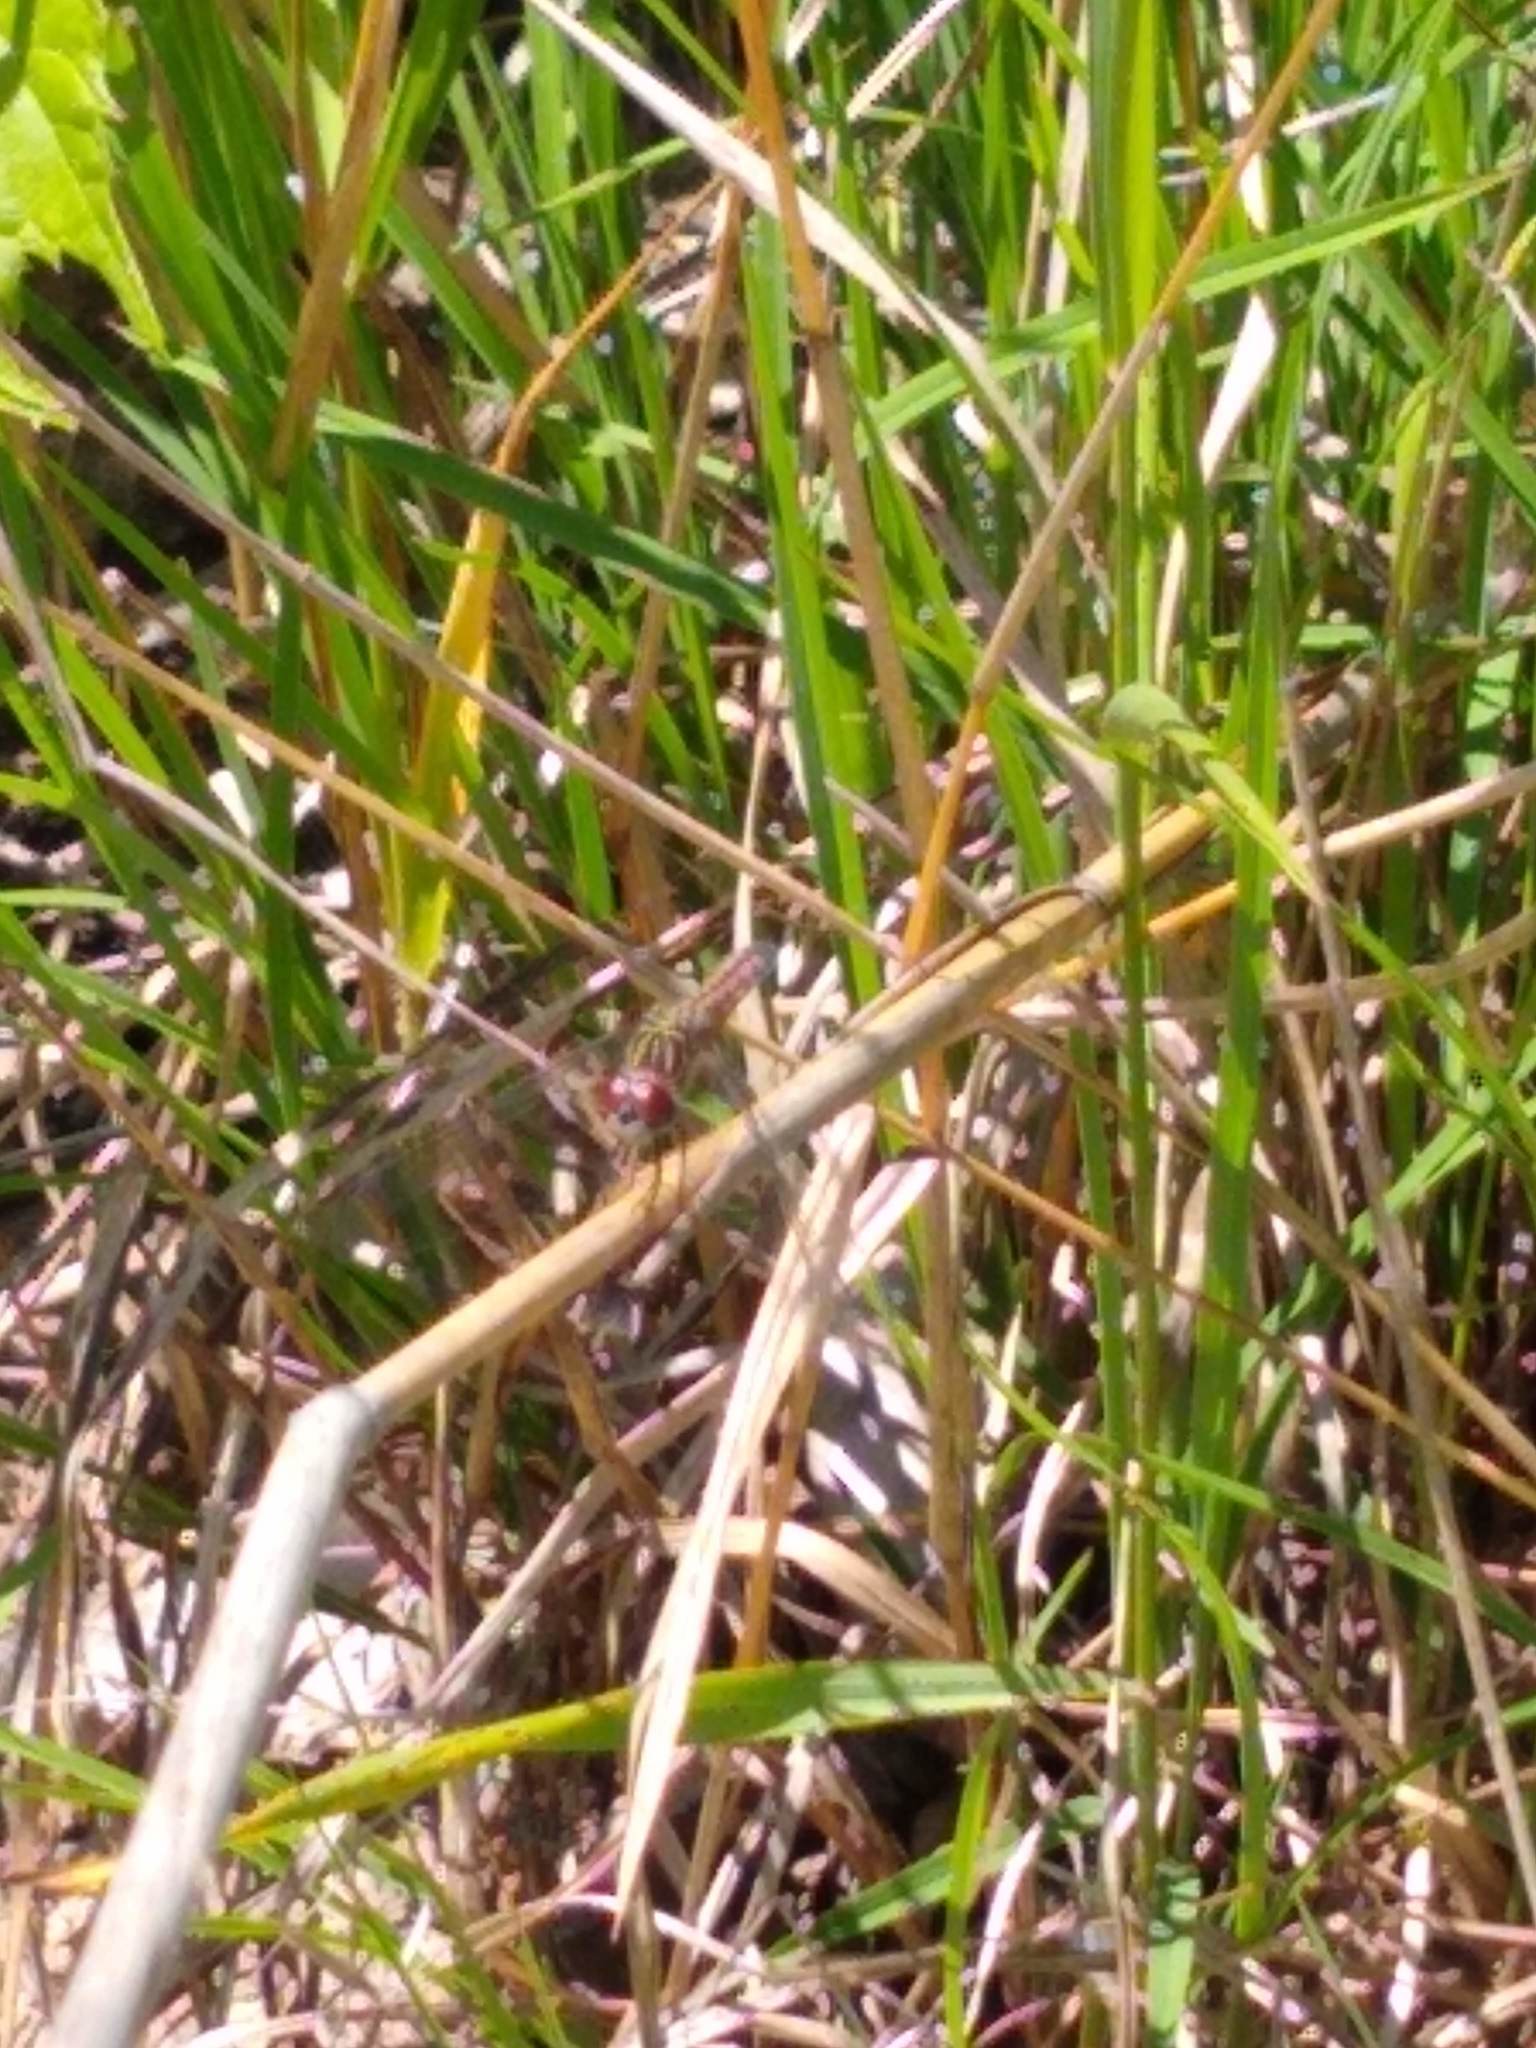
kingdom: Animalia
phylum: Arthropoda
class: Insecta
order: Odonata
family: Libellulidae
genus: Pachydiplax
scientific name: Pachydiplax longipennis
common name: Blue dasher
